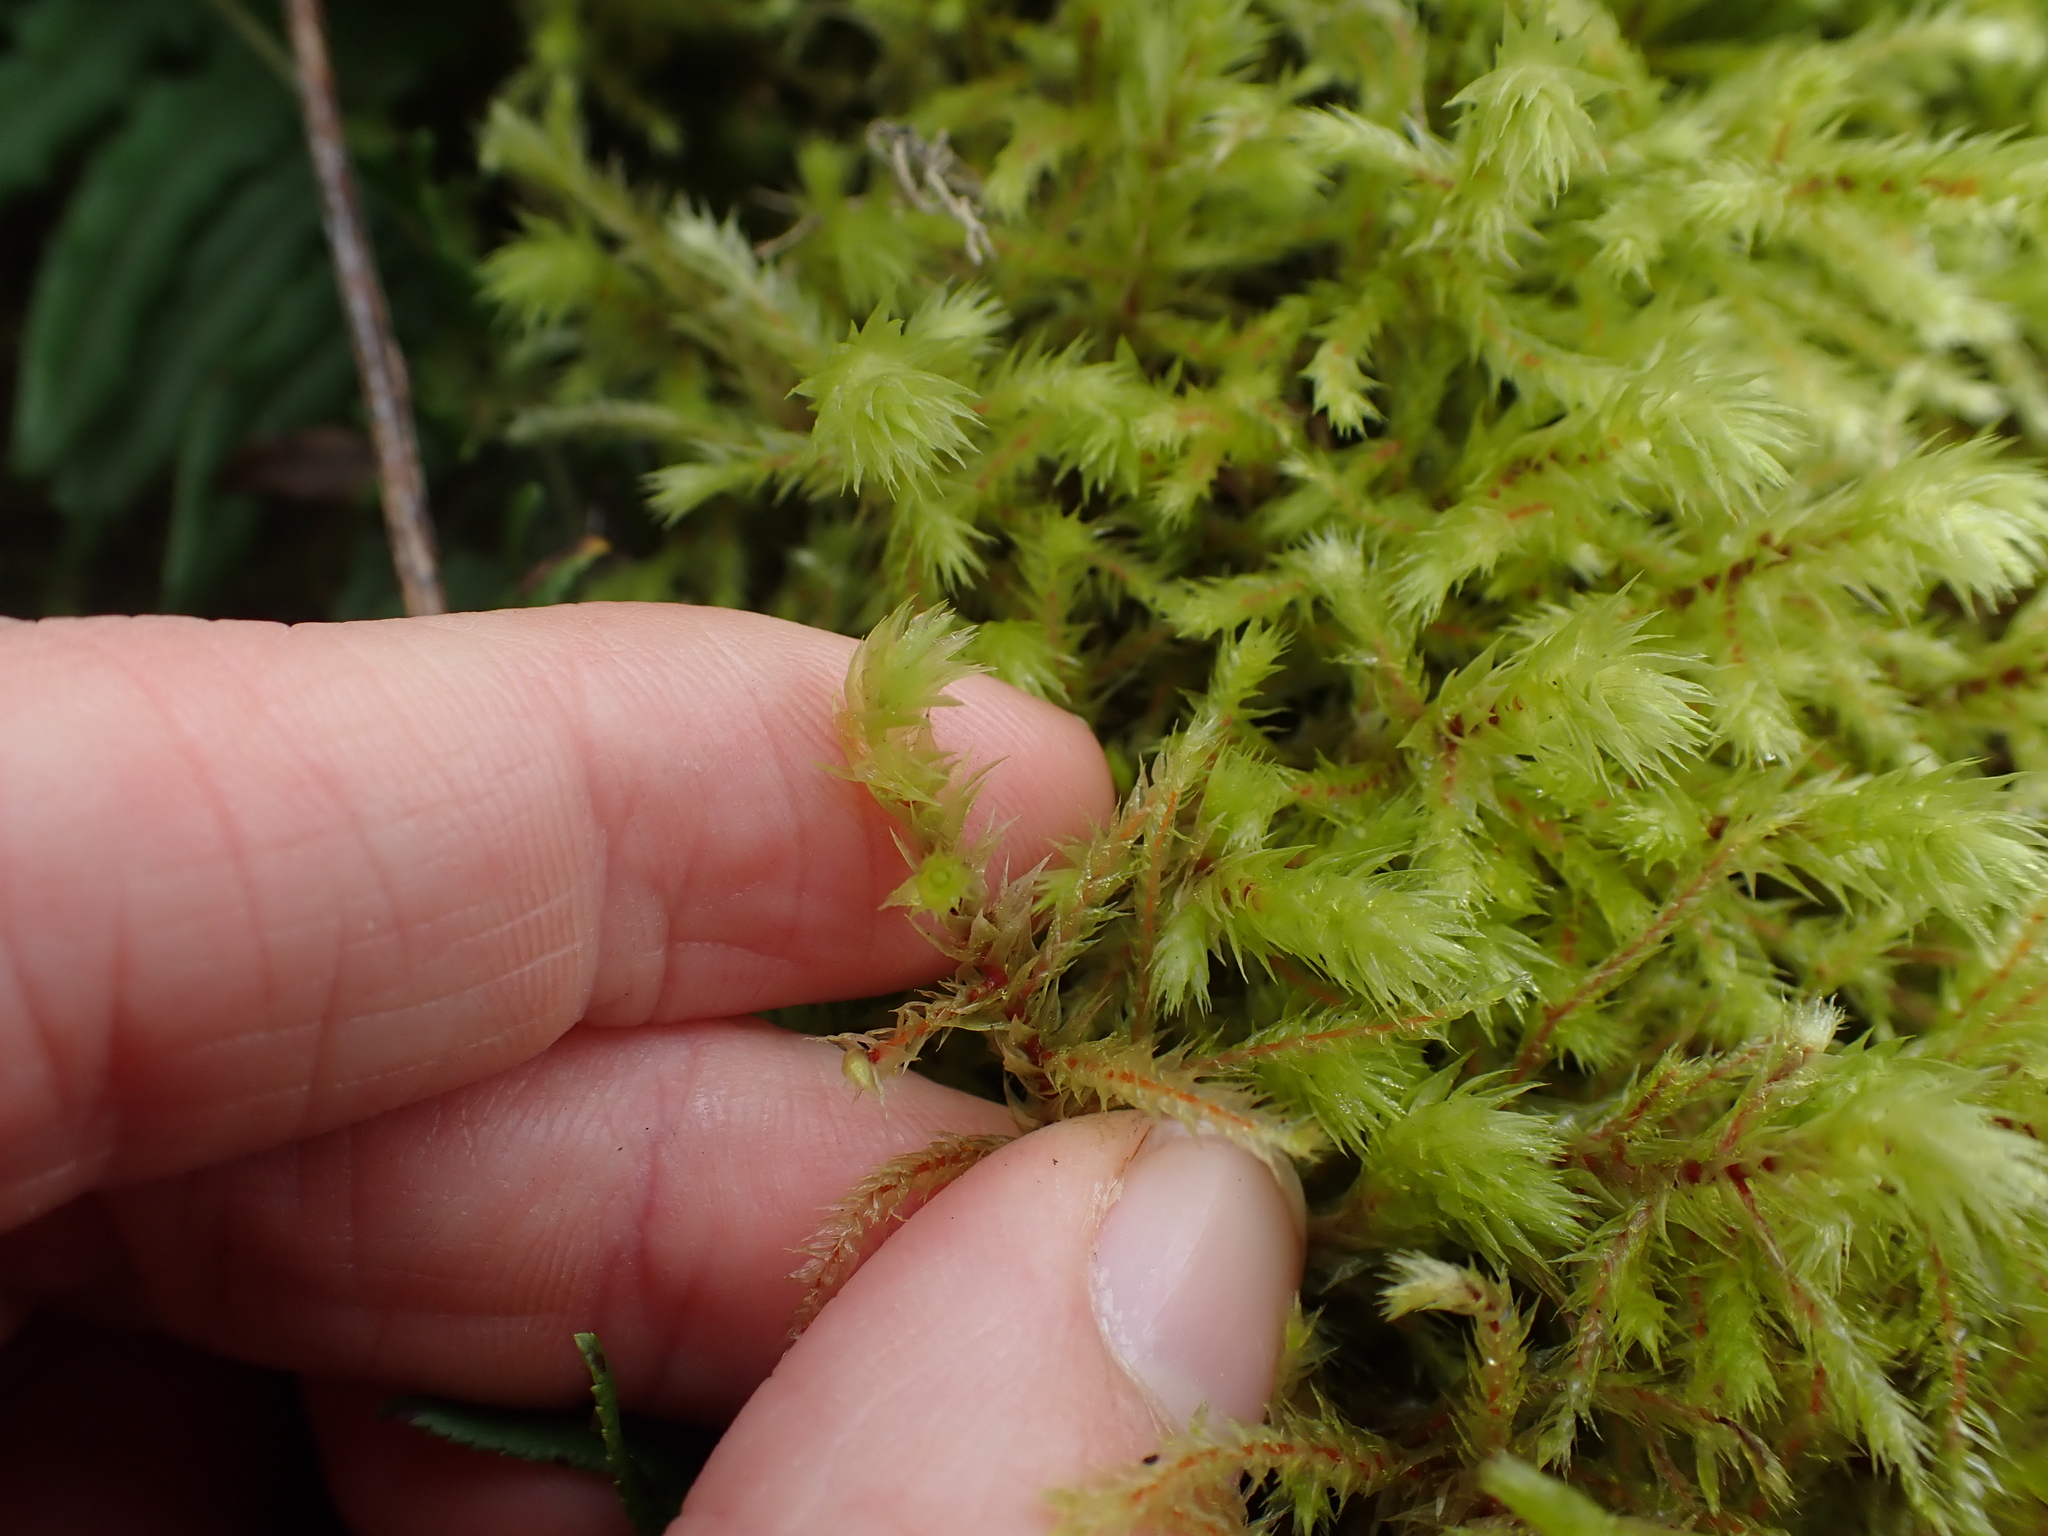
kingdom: Plantae
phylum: Bryophyta
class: Bryopsida
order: Hypnales
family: Hylocomiaceae
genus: Hylocomiadelphus
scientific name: Hylocomiadelphus triquetrus
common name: Rough goose neck moss
